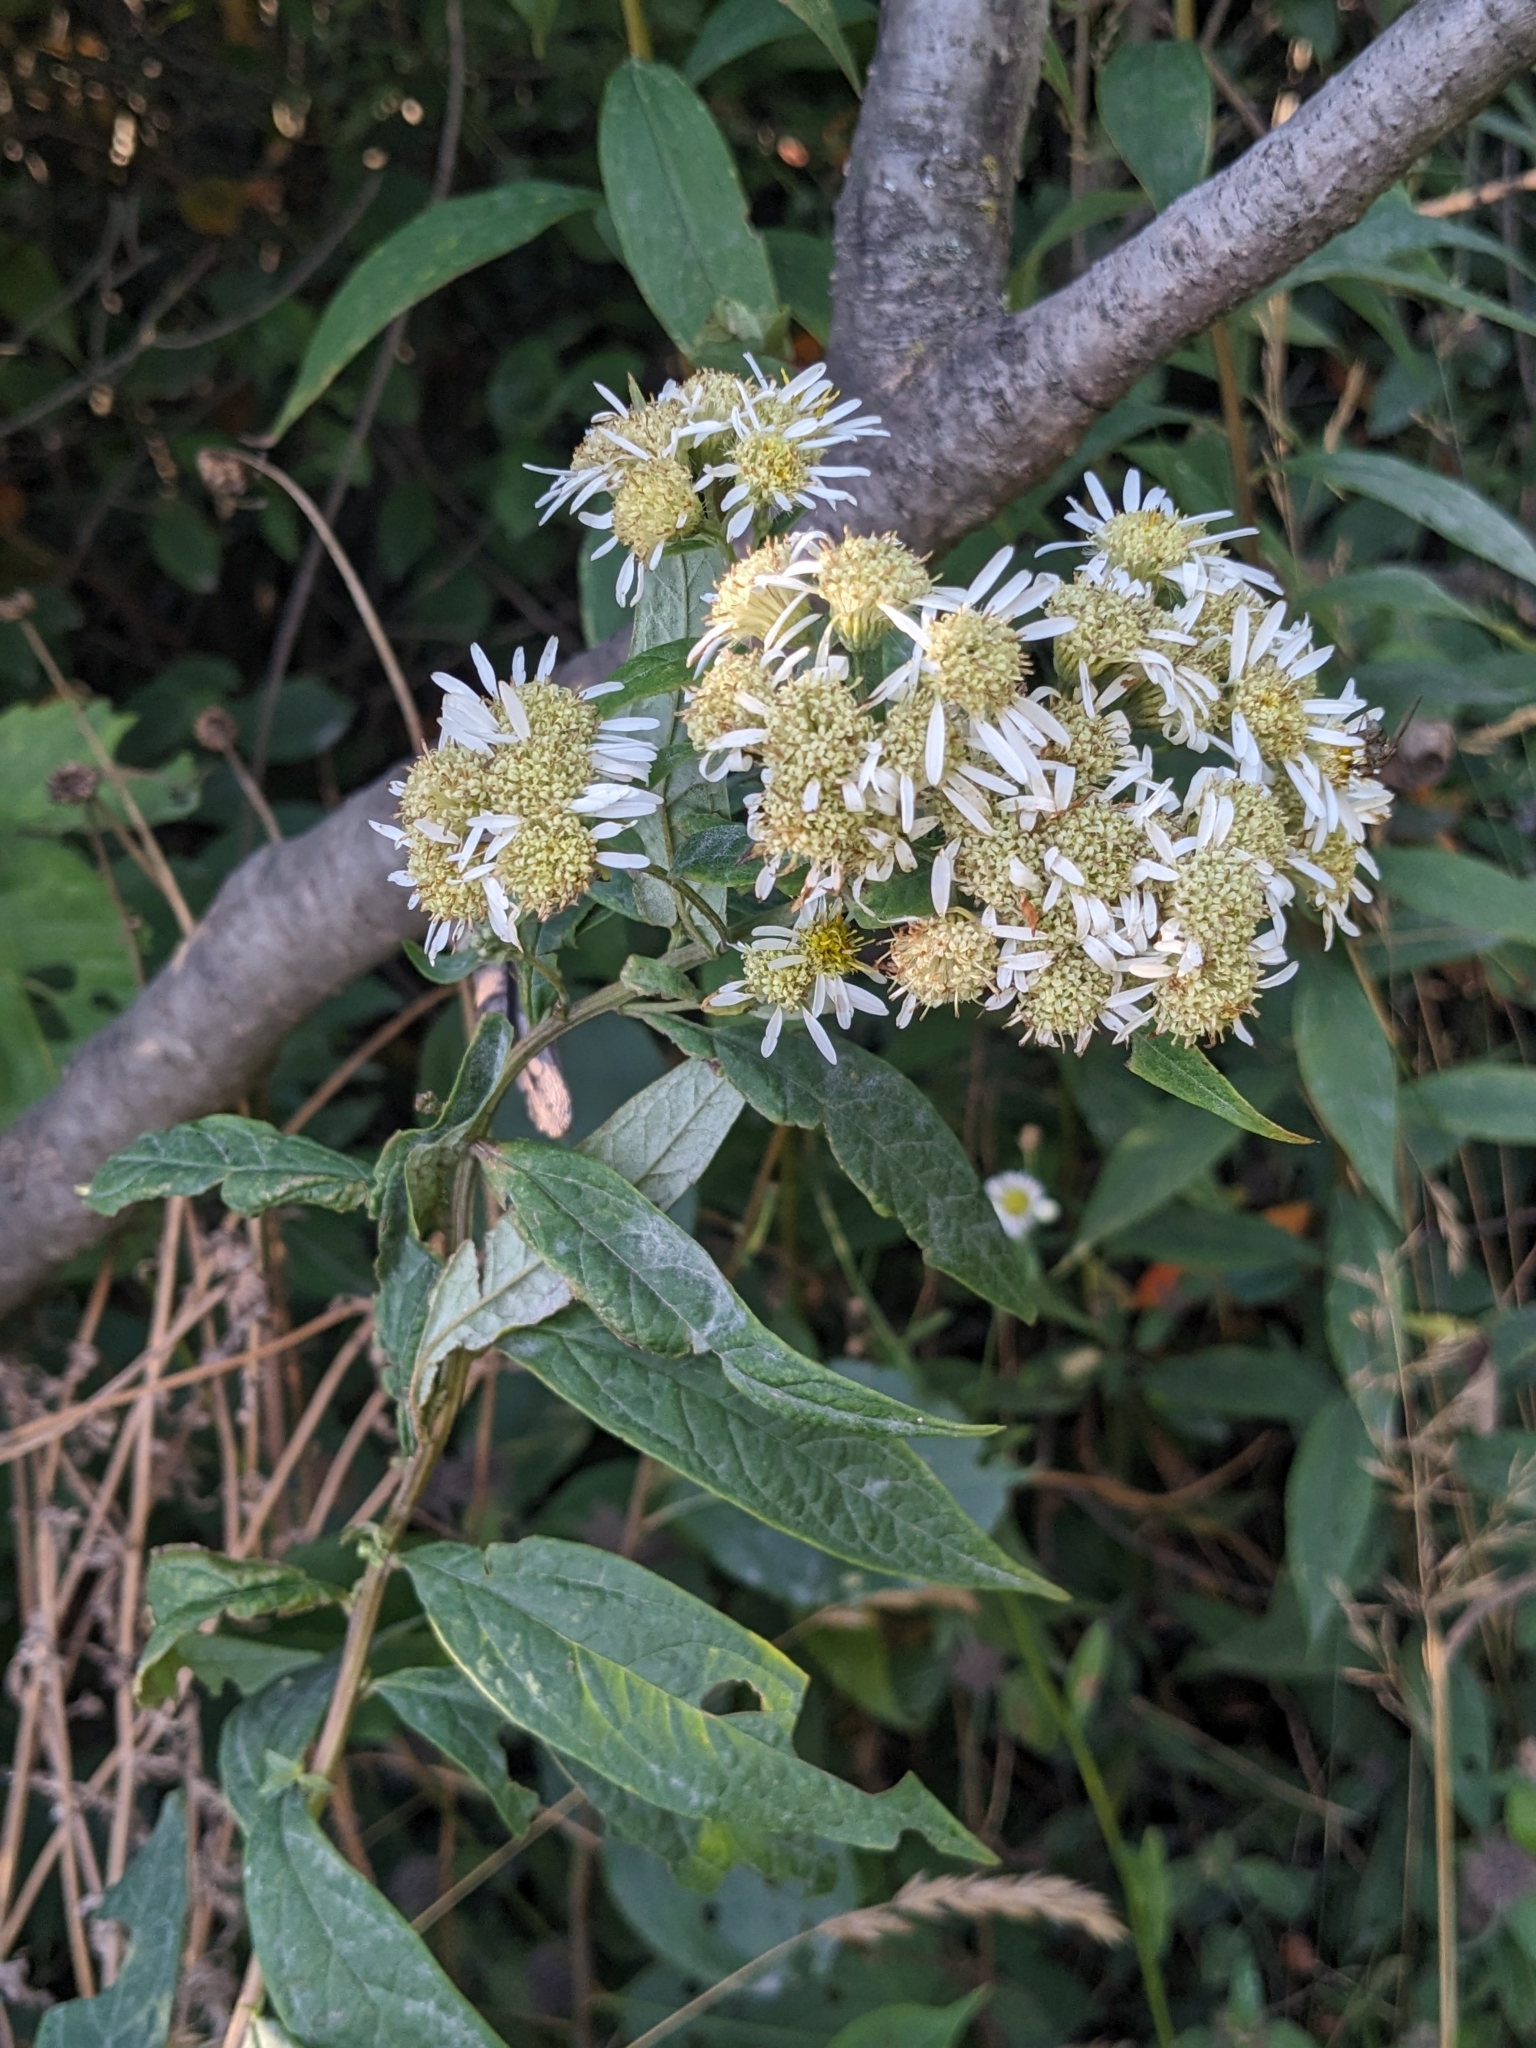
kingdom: Plantae
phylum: Tracheophyta
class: Magnoliopsida
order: Asterales
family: Asteraceae
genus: Doellingeria
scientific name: Doellingeria umbellata
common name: Flat-top white aster
